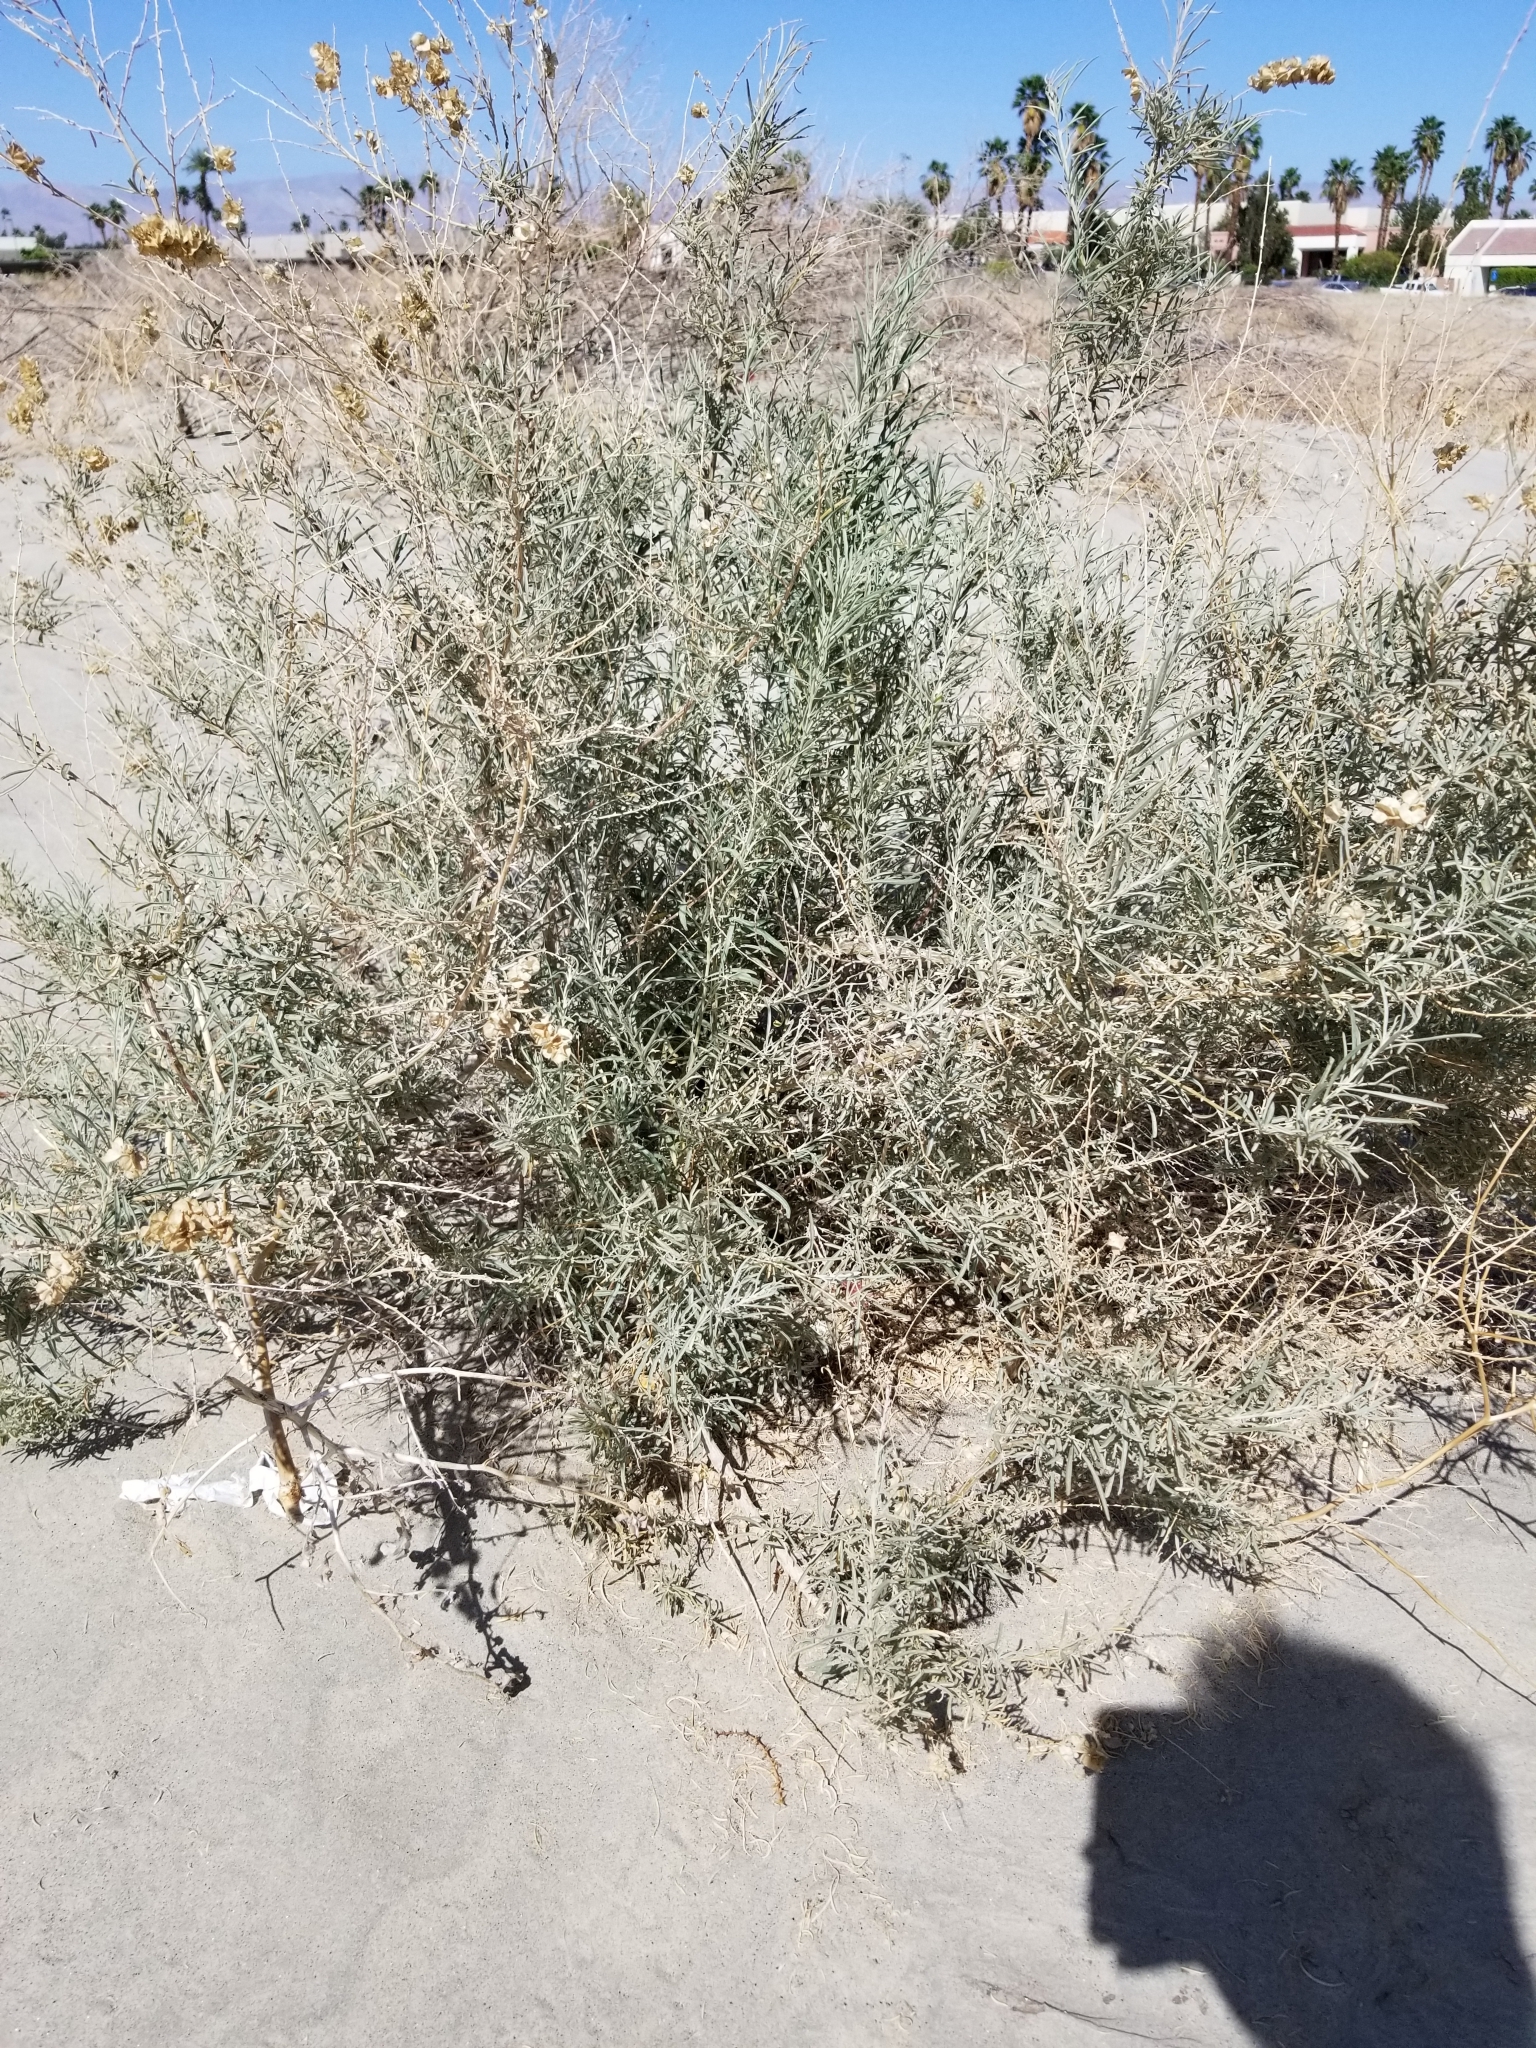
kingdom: Plantae
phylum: Tracheophyta
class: Magnoliopsida
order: Caryophyllales
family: Amaranthaceae
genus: Atriplex
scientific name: Atriplex canescens
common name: Four-wing saltbush
